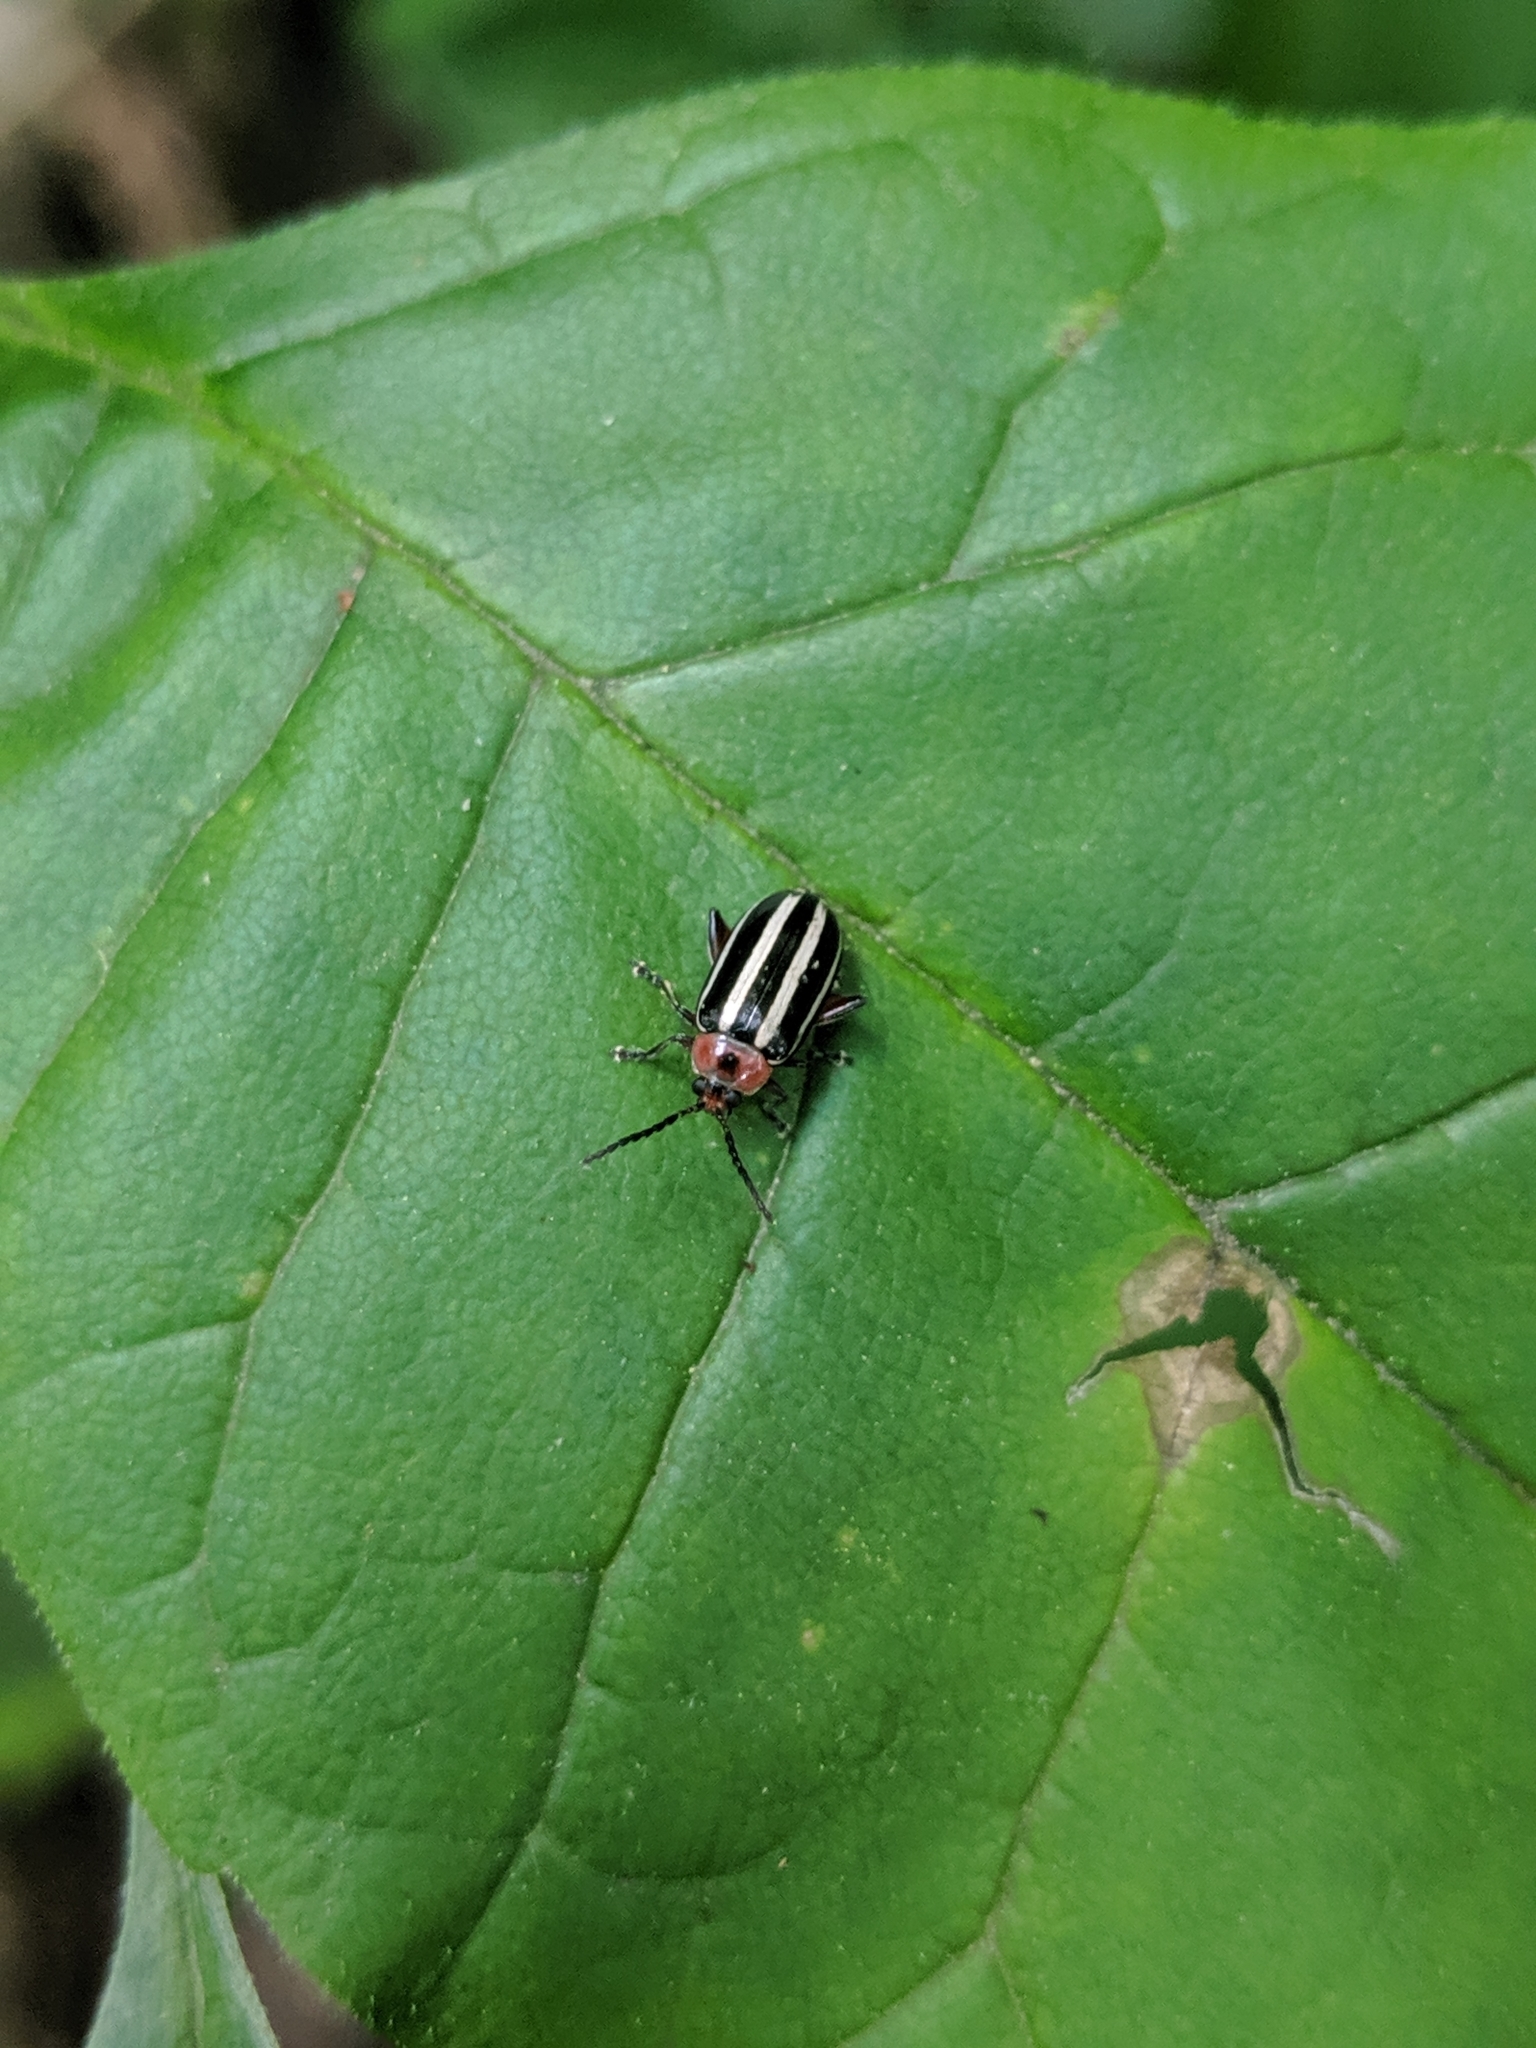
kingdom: Animalia
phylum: Arthropoda
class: Insecta
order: Coleoptera
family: Chrysomelidae
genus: Disonycha
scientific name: Disonycha glabrata
